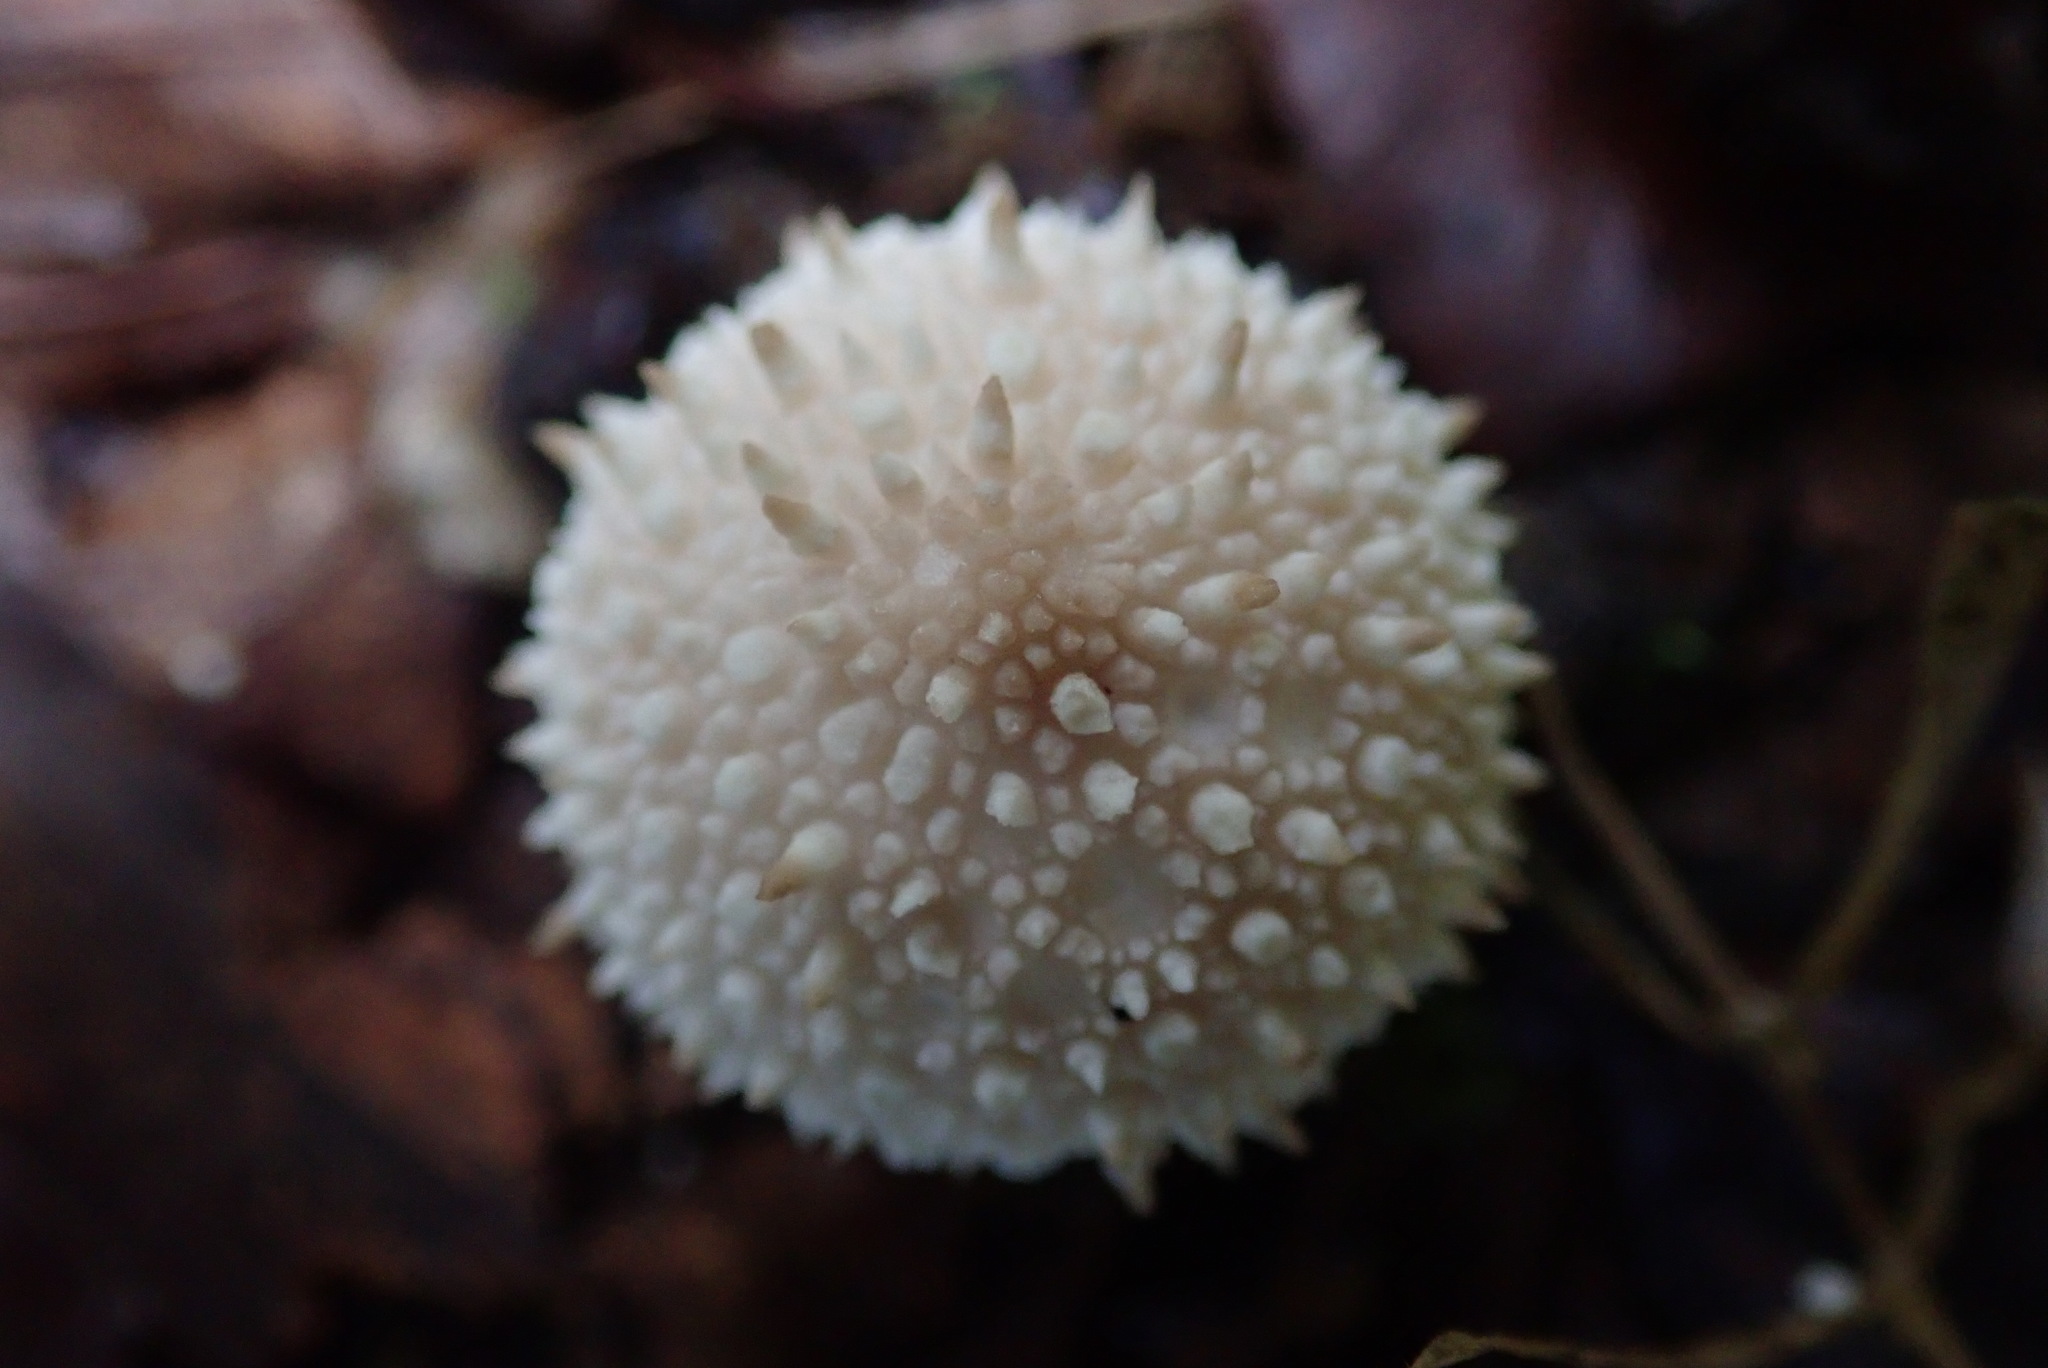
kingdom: Fungi
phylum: Basidiomycota
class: Agaricomycetes
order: Agaricales
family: Lycoperdaceae
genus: Lycoperdon
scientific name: Lycoperdon perlatum
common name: Common puffball
